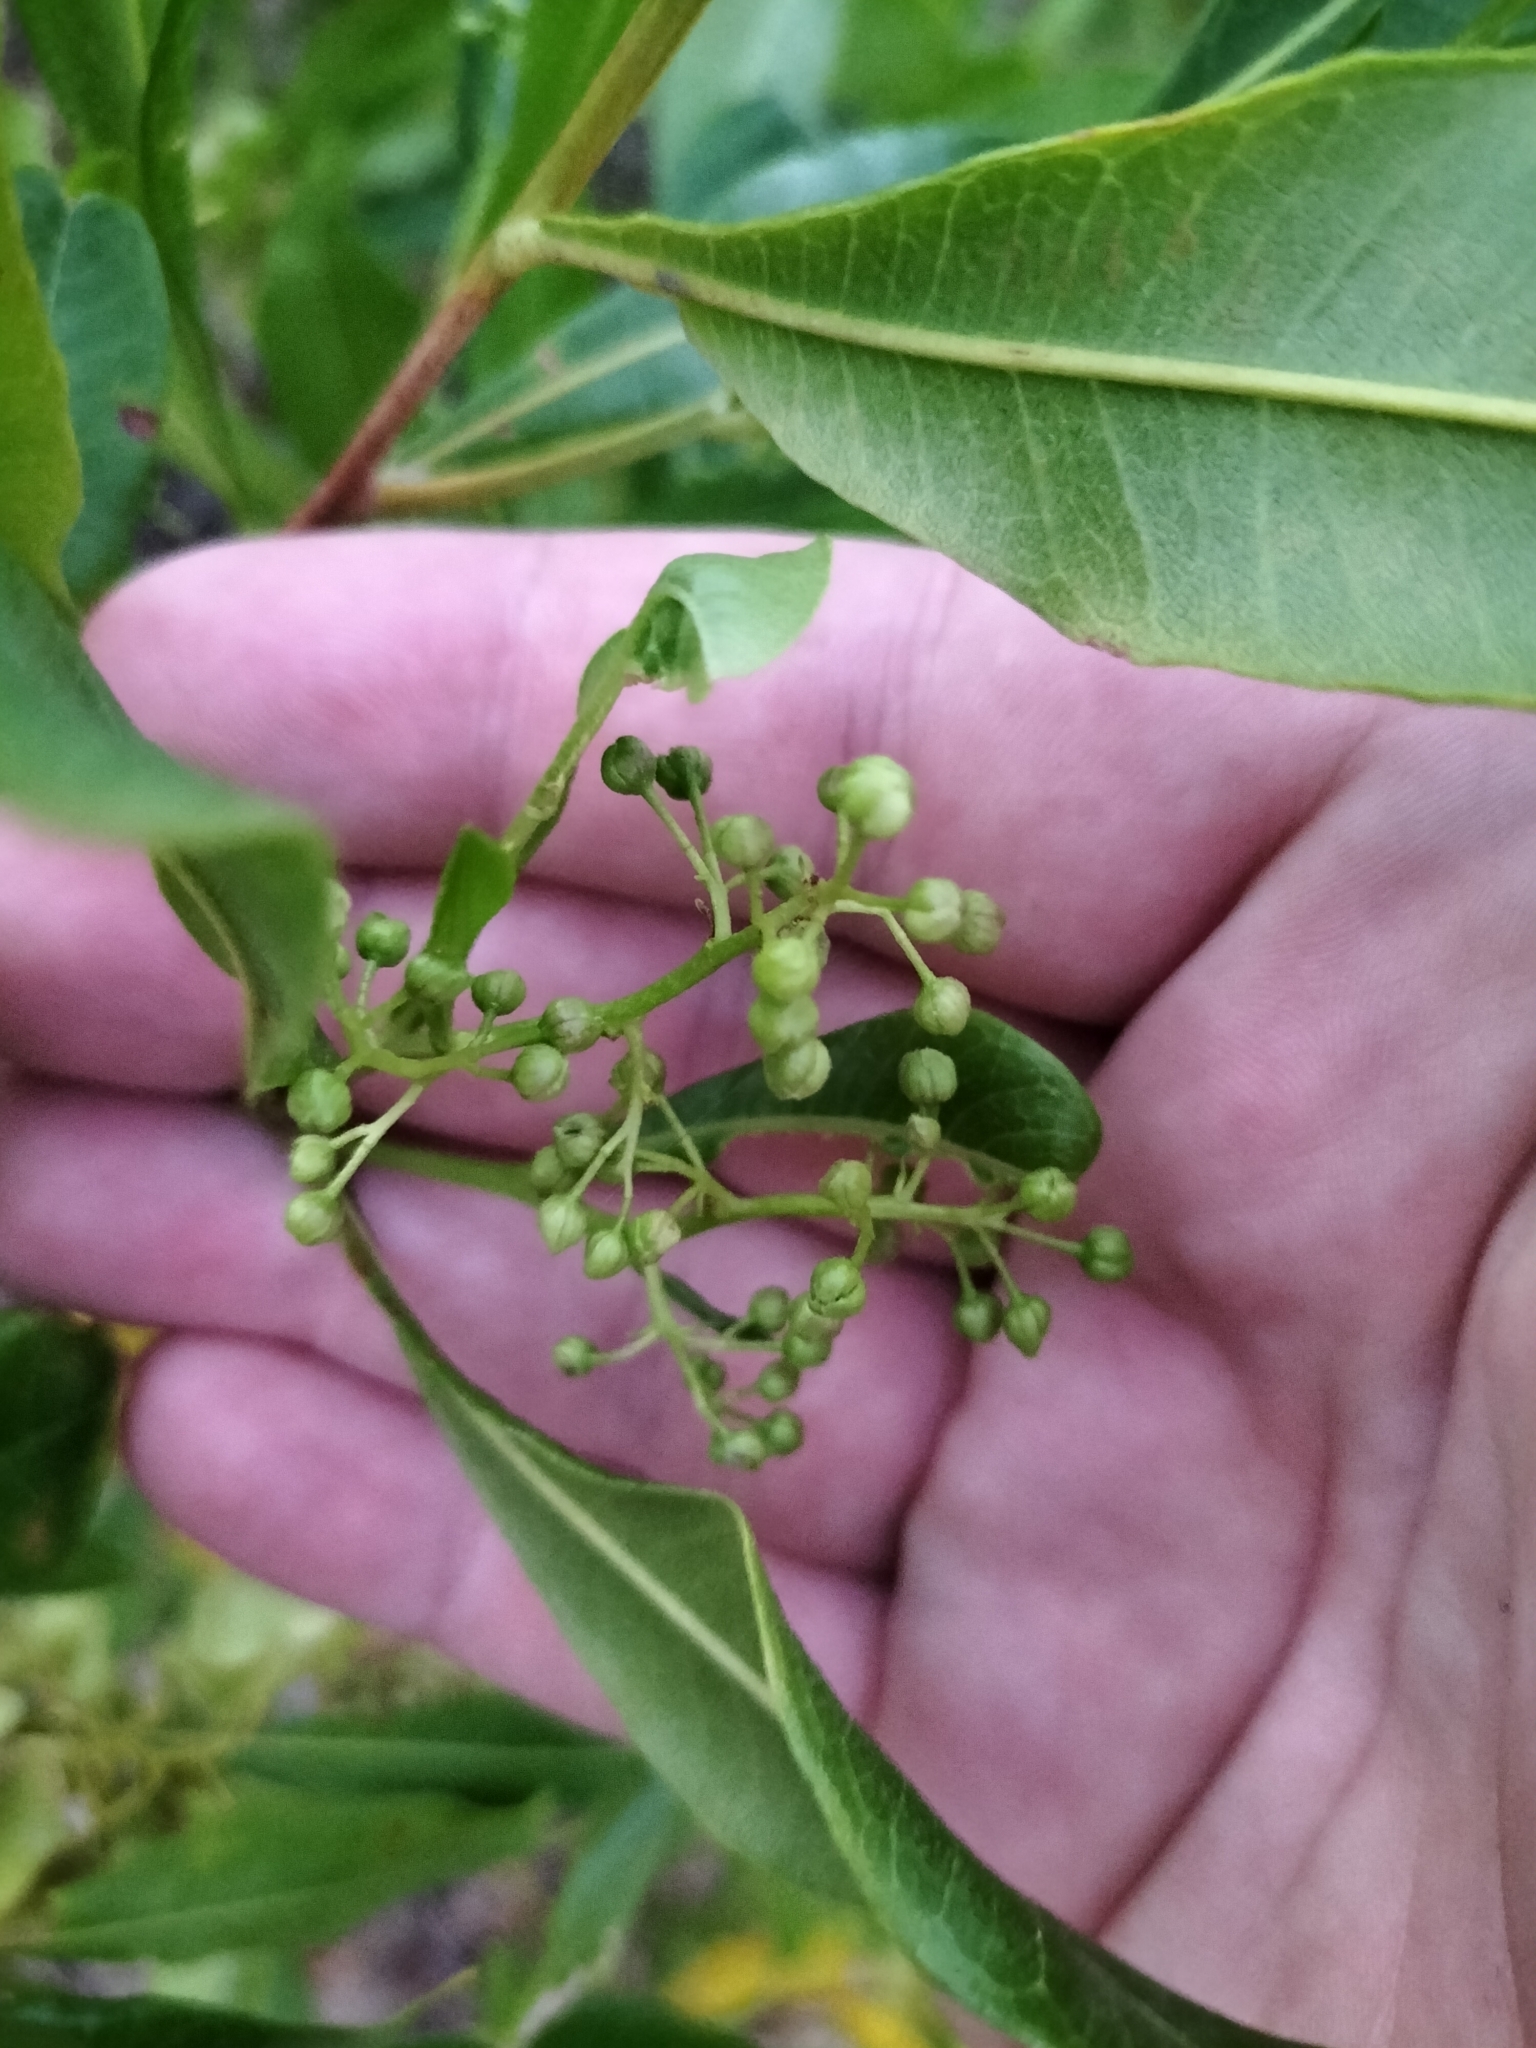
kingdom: Plantae
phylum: Tracheophyta
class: Magnoliopsida
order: Sapindales
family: Sapindaceae
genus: Dodonaea
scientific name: Dodonaea viscosa
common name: Hopbush
